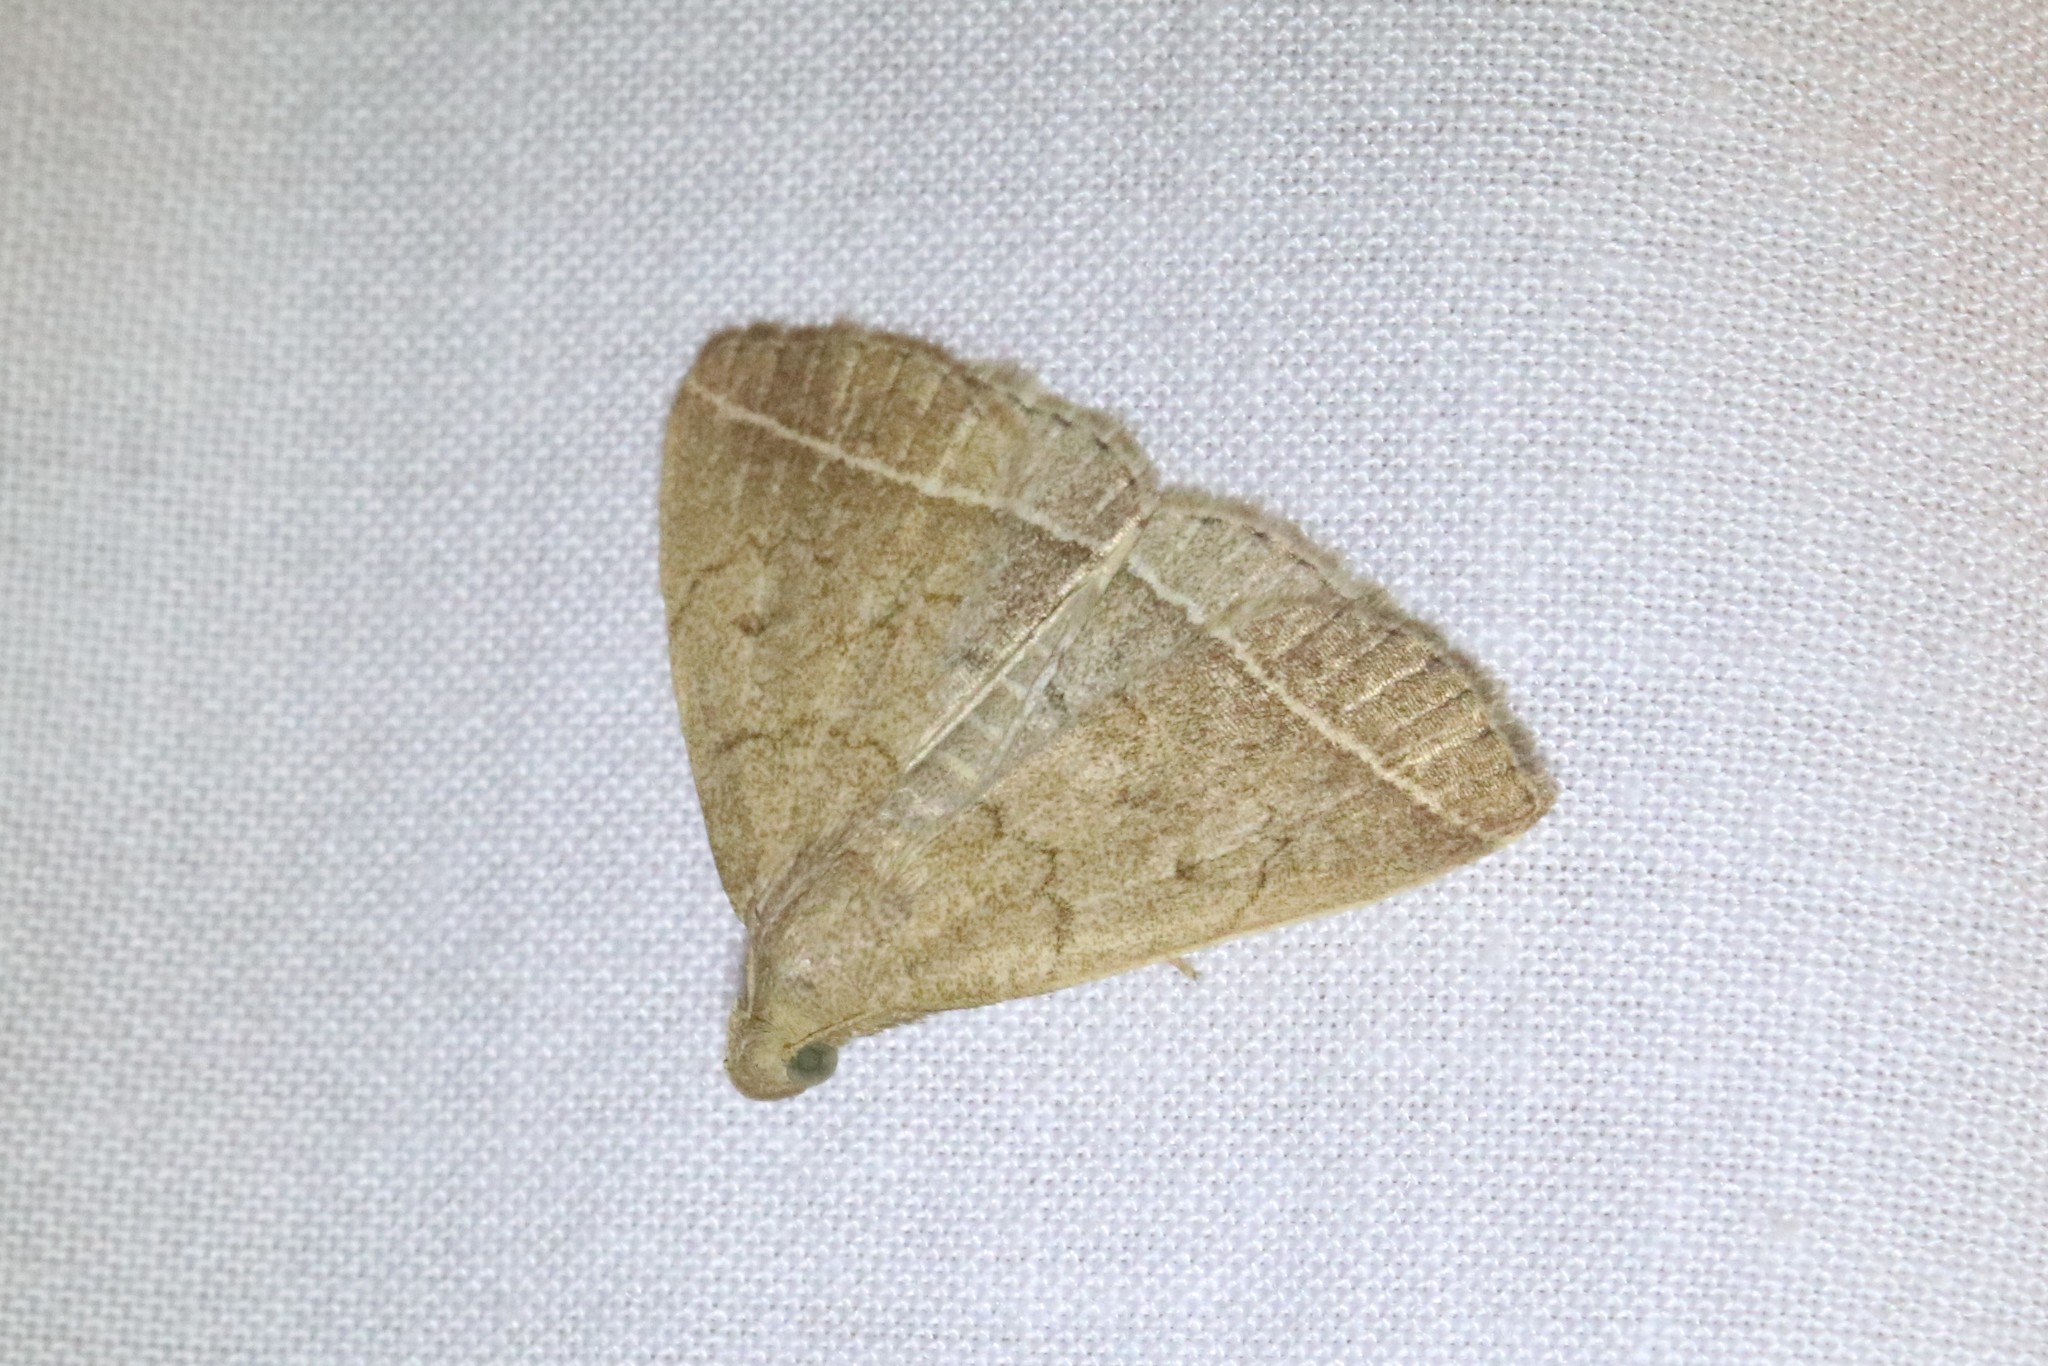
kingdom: Animalia
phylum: Arthropoda
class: Insecta
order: Lepidoptera
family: Erebidae
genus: Zanclognatha
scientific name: Zanclognatha marcidilinea
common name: Yellowish fan-foot
